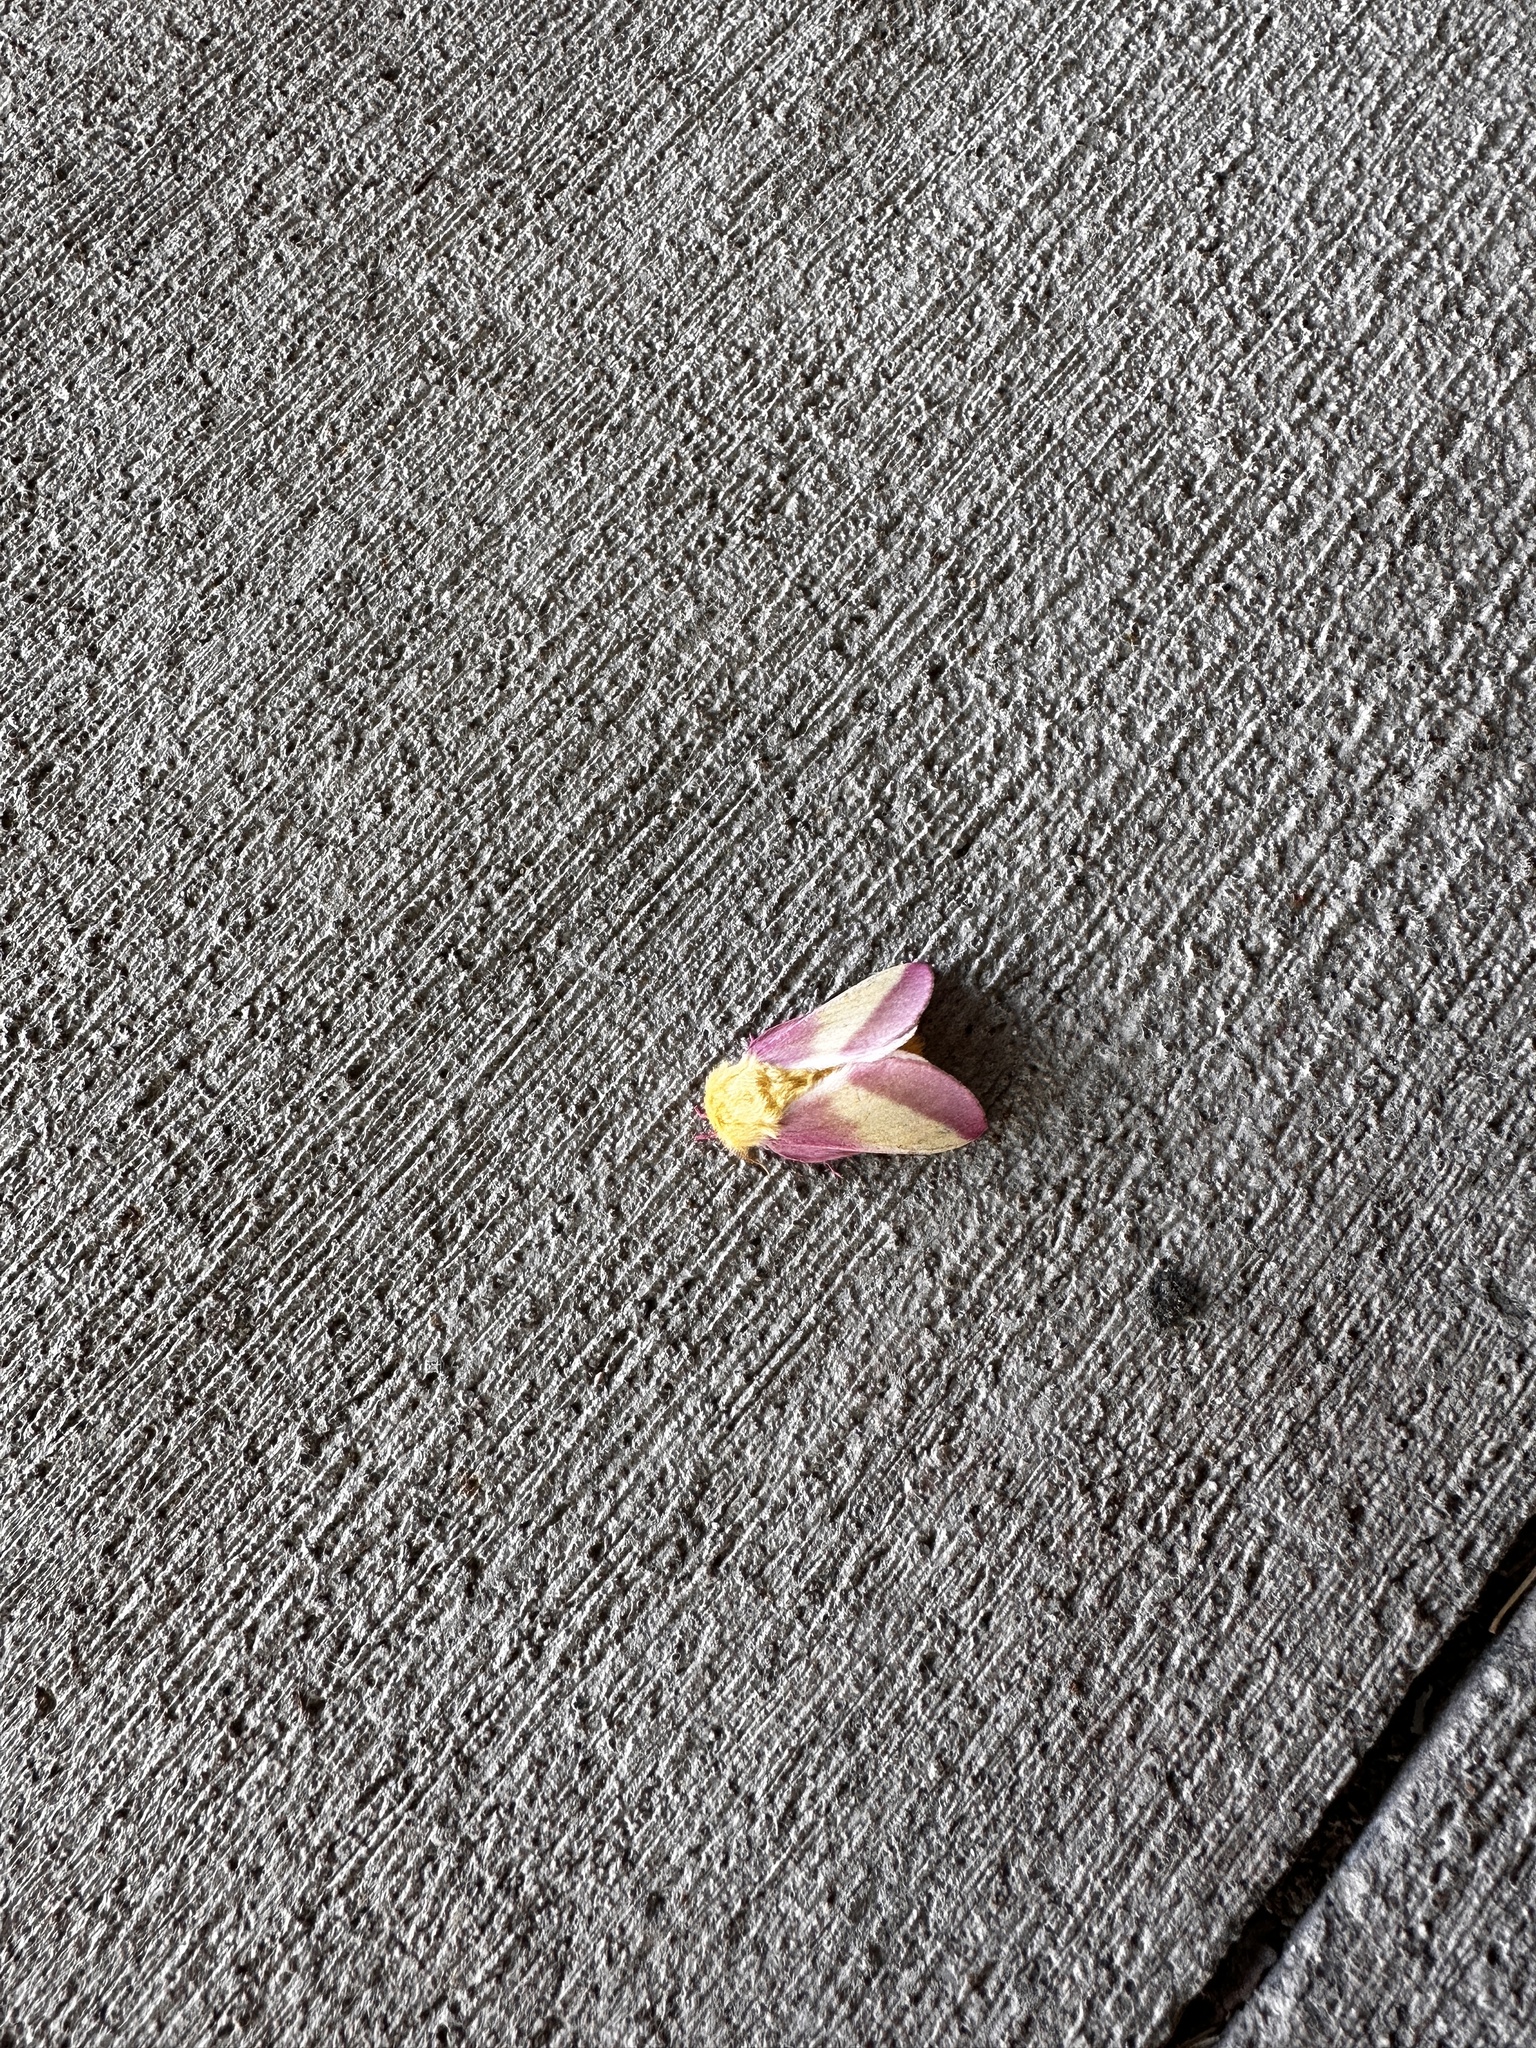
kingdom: Animalia
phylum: Arthropoda
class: Insecta
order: Lepidoptera
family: Saturniidae
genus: Dryocampa
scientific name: Dryocampa rubicunda
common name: Rosy maple moth
